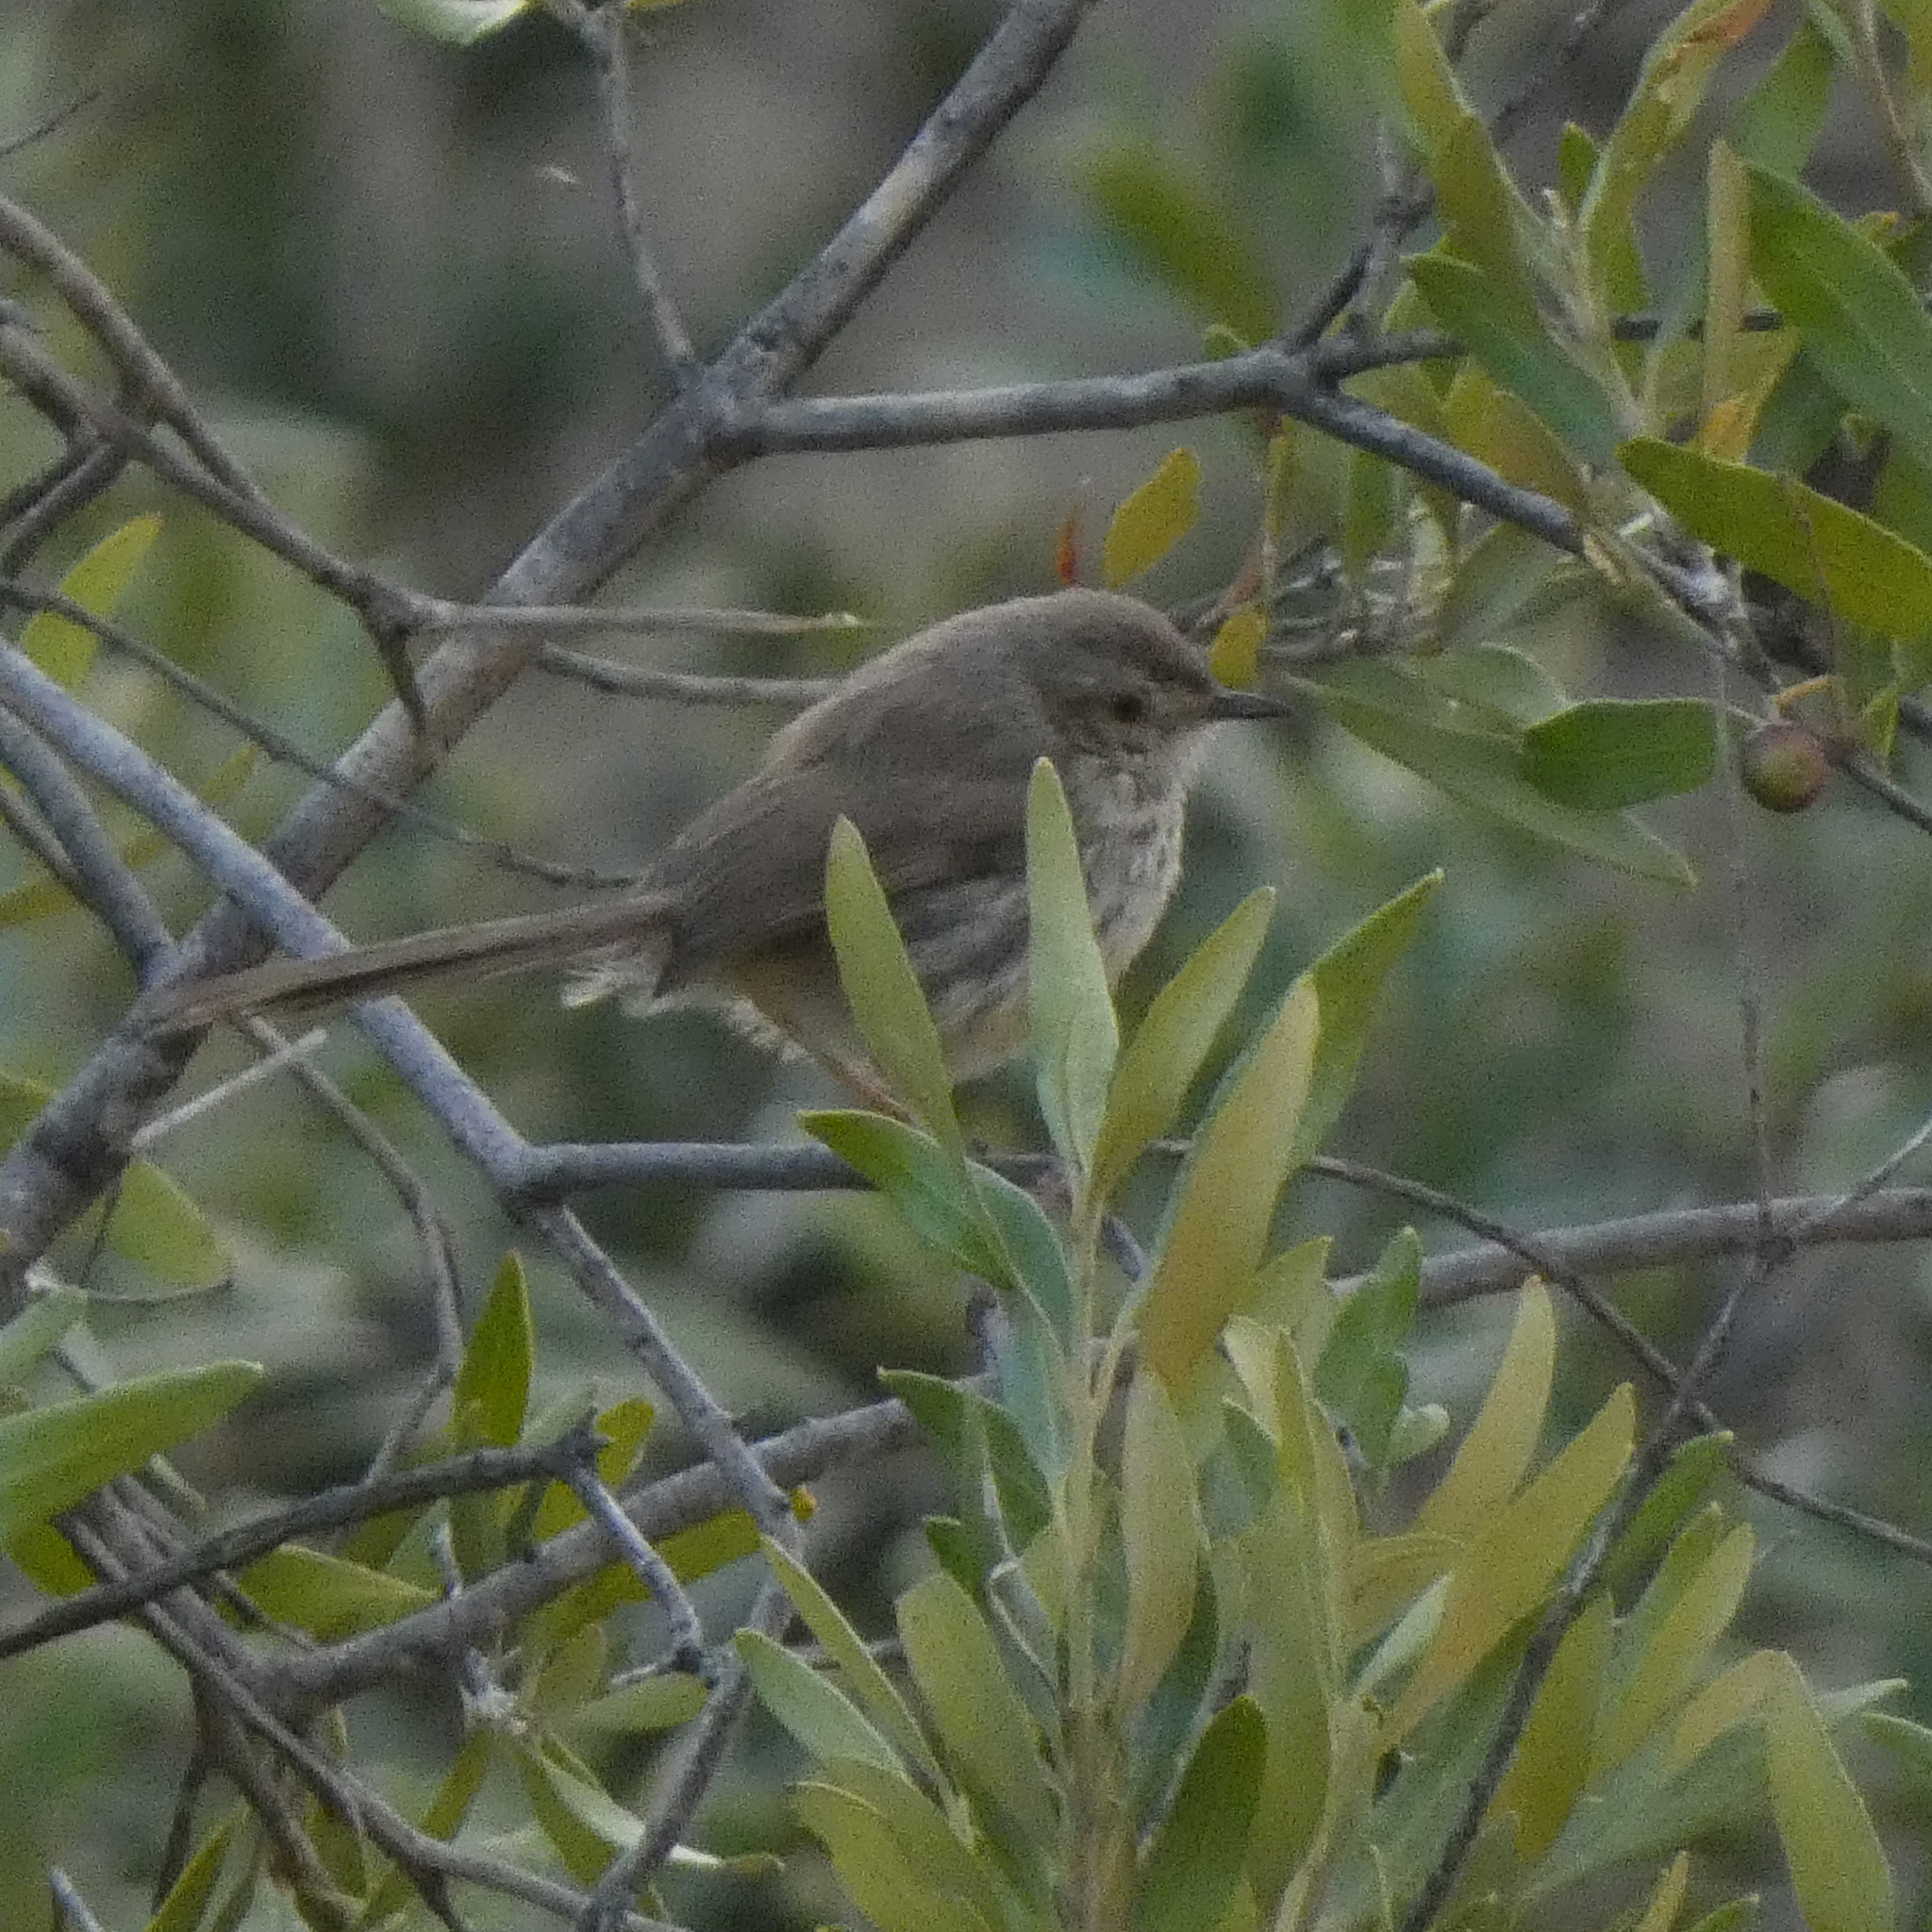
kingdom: Animalia
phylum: Chordata
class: Aves
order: Passeriformes
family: Cisticolidae
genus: Prinia
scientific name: Prinia maculosa
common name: Karoo prinia
